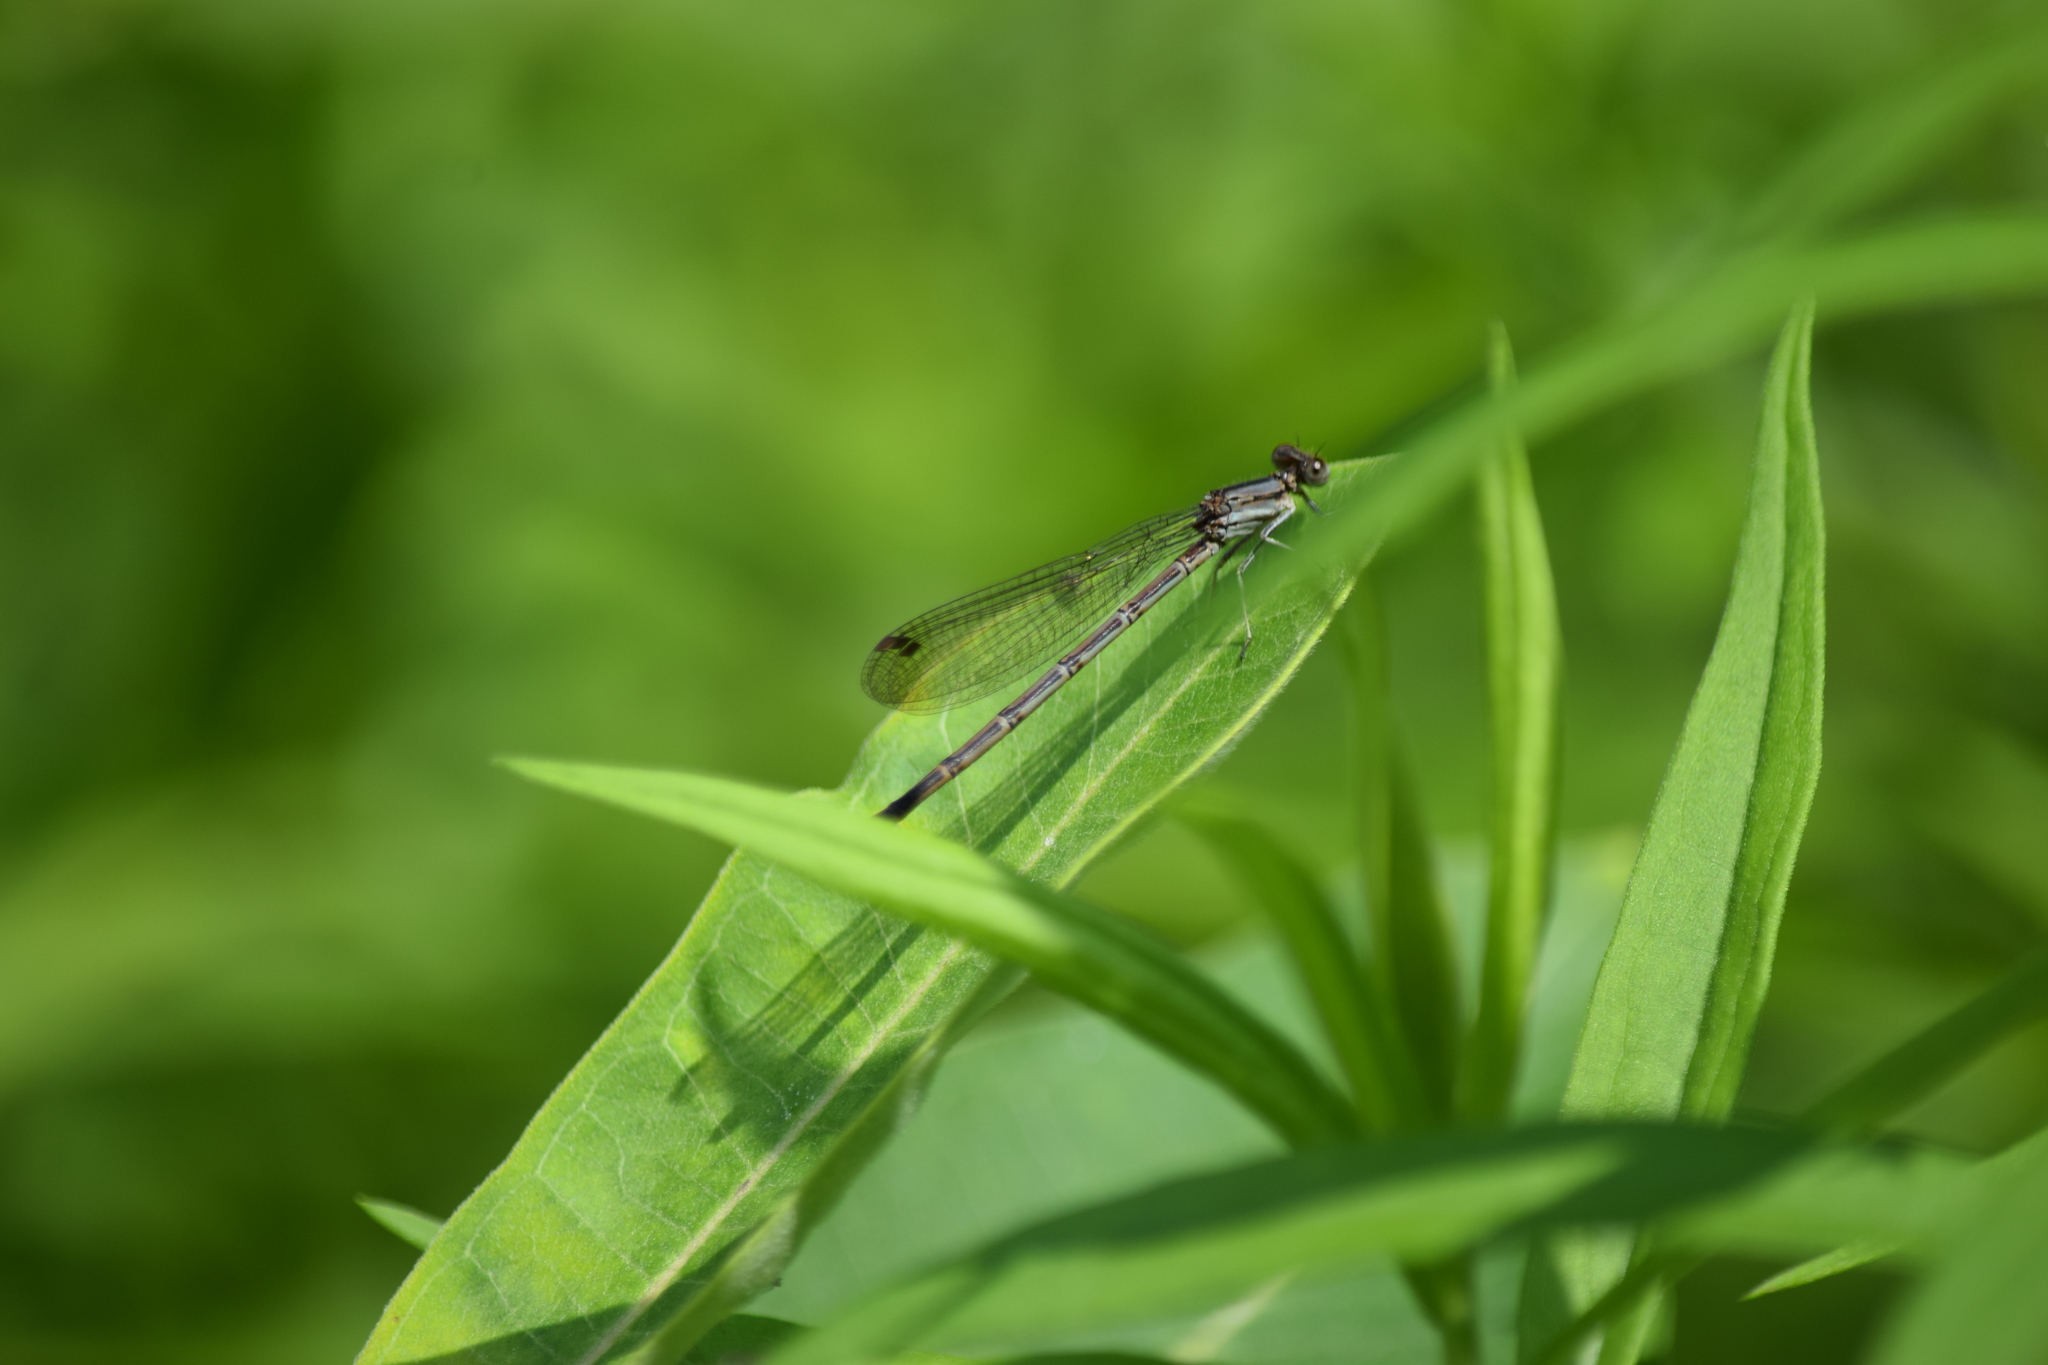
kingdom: Animalia
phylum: Arthropoda
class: Insecta
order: Odonata
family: Coenagrionidae
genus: Argia
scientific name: Argia fumipennis
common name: Variable dancer
